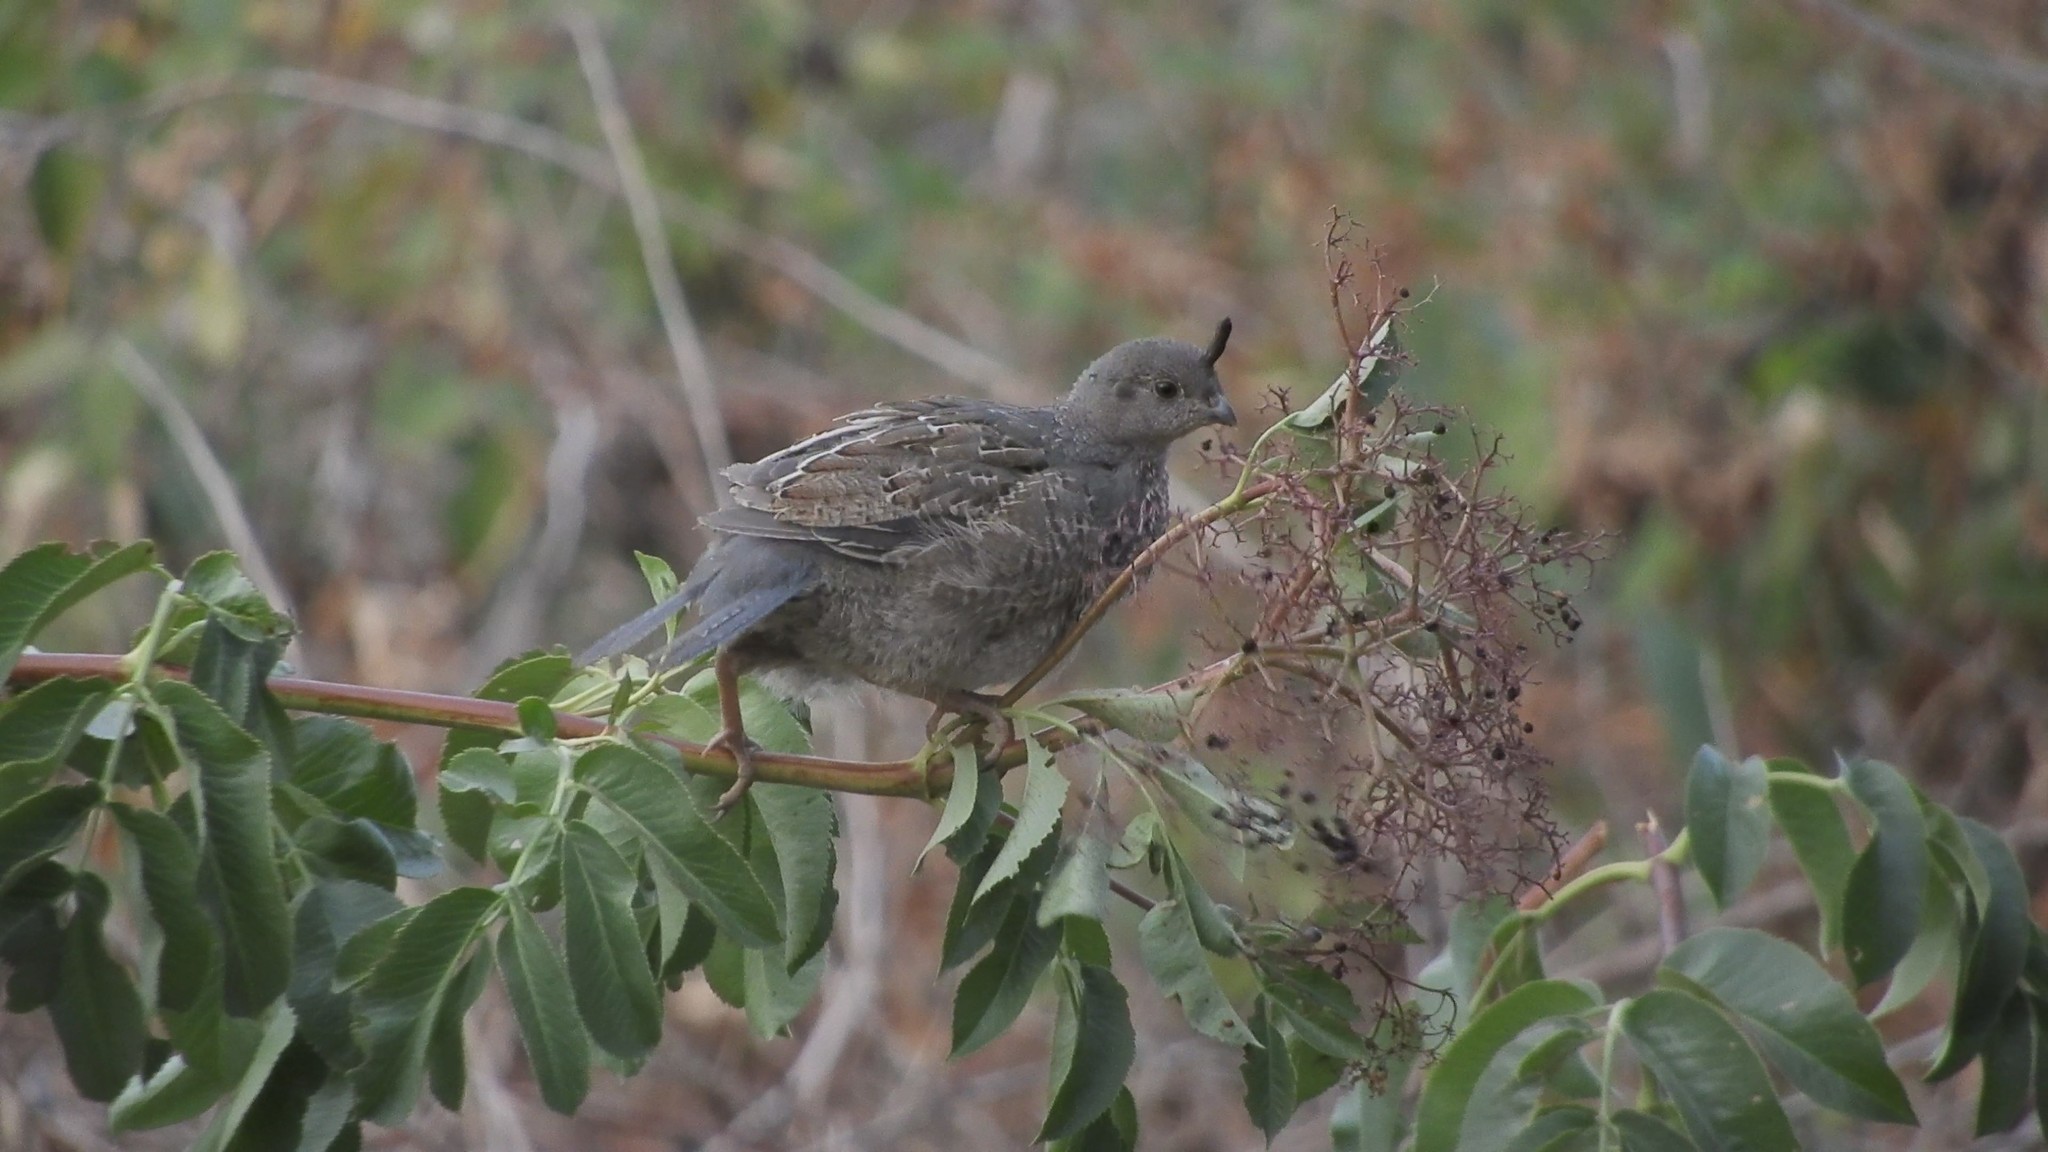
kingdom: Animalia
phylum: Chordata
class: Aves
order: Galliformes
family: Odontophoridae
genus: Callipepla
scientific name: Callipepla californica
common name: California quail
